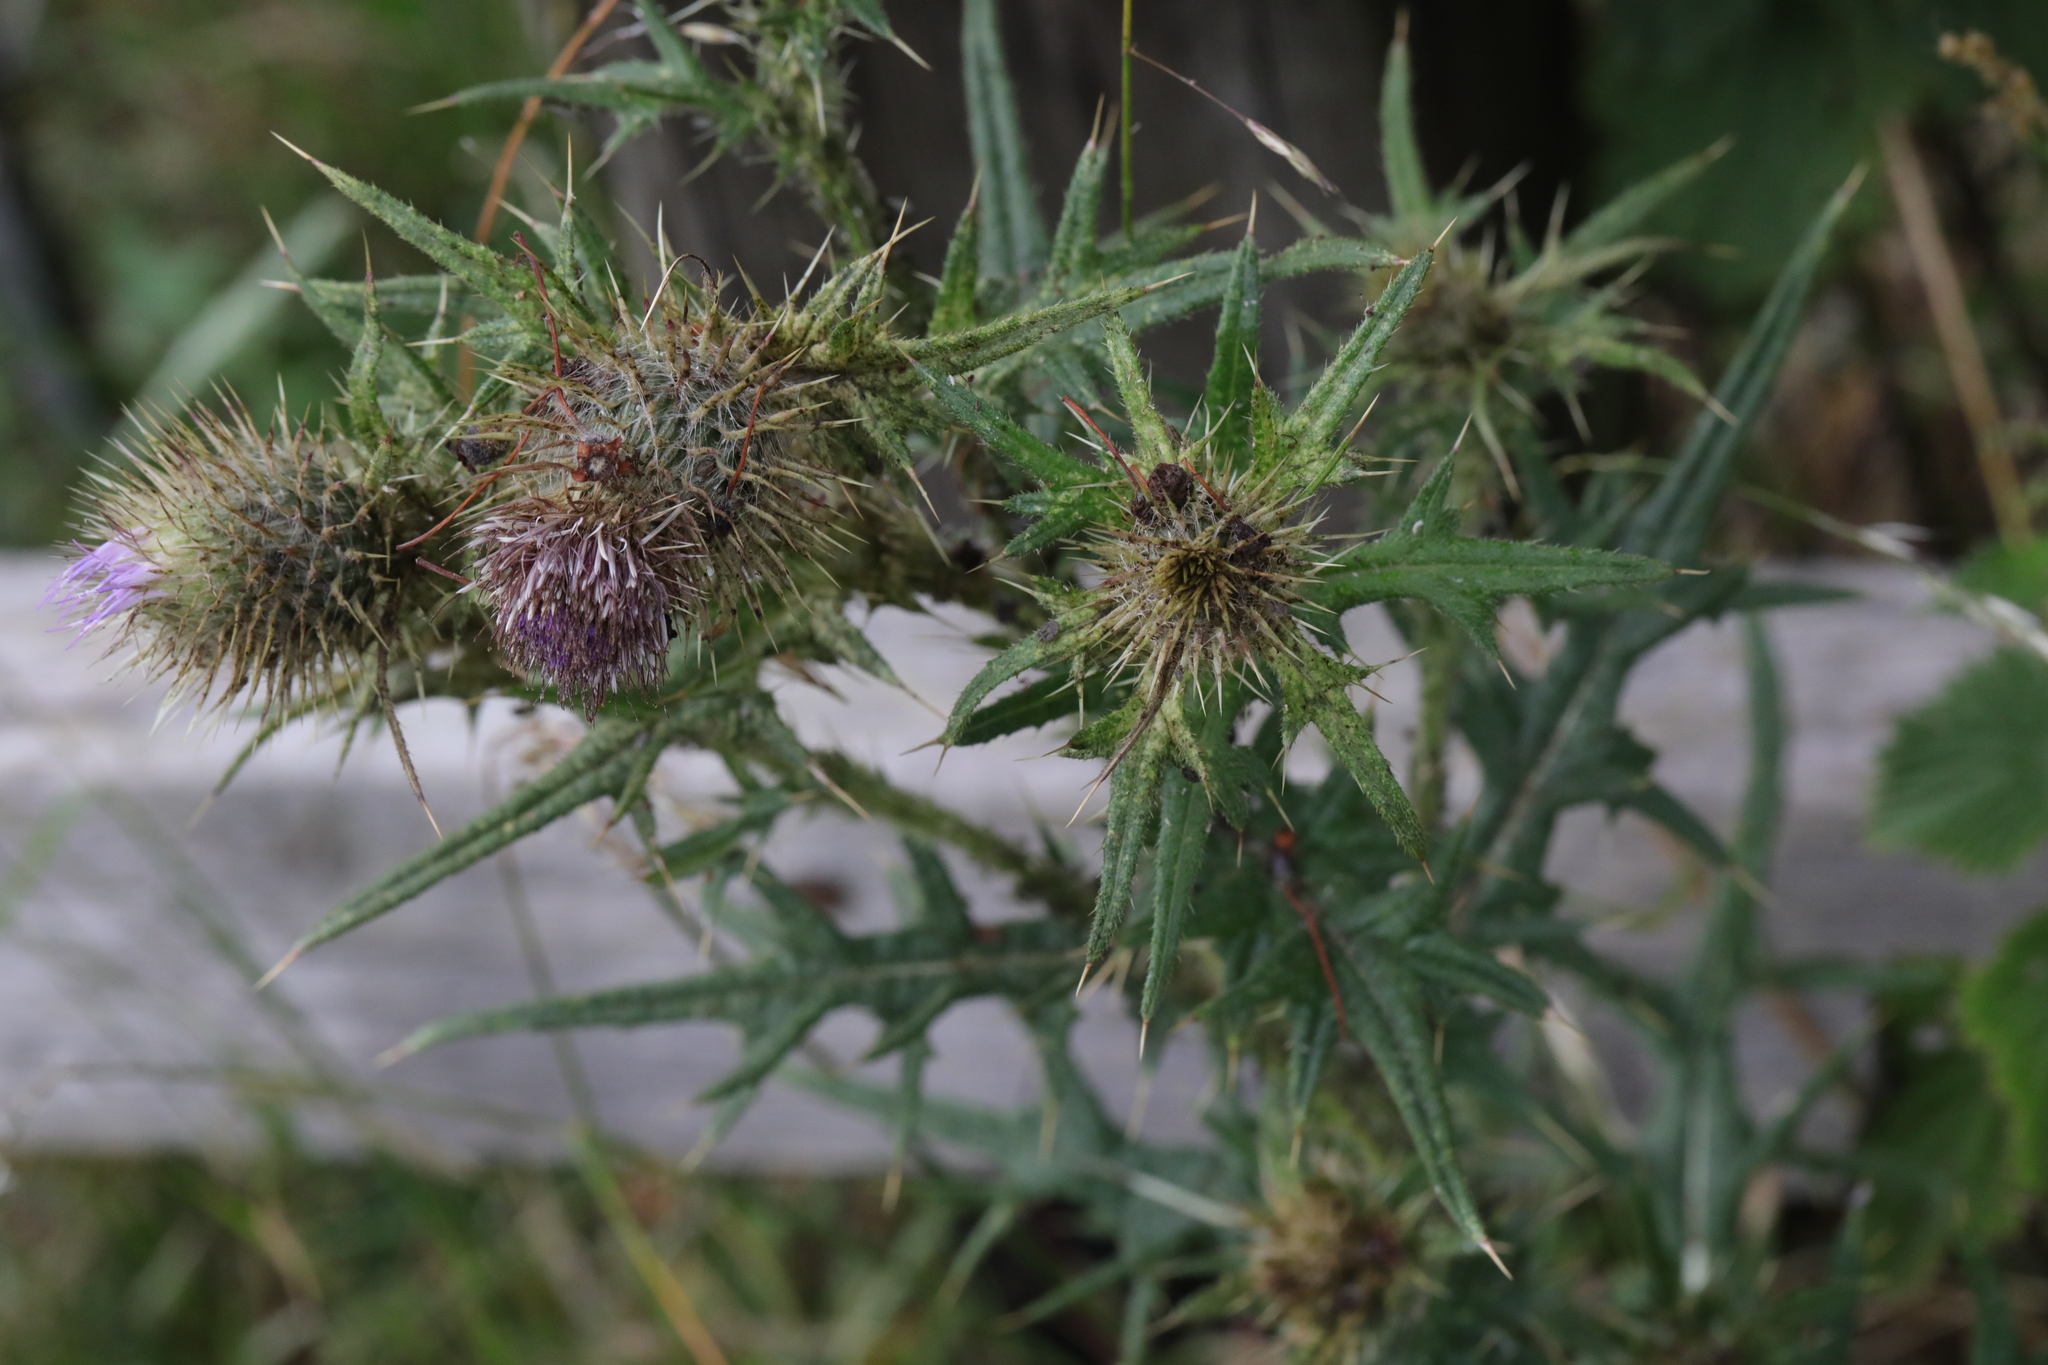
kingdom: Plantae
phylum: Tracheophyta
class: Magnoliopsida
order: Asterales
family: Asteraceae
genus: Cirsium
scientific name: Cirsium vulgare
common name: Bull thistle
